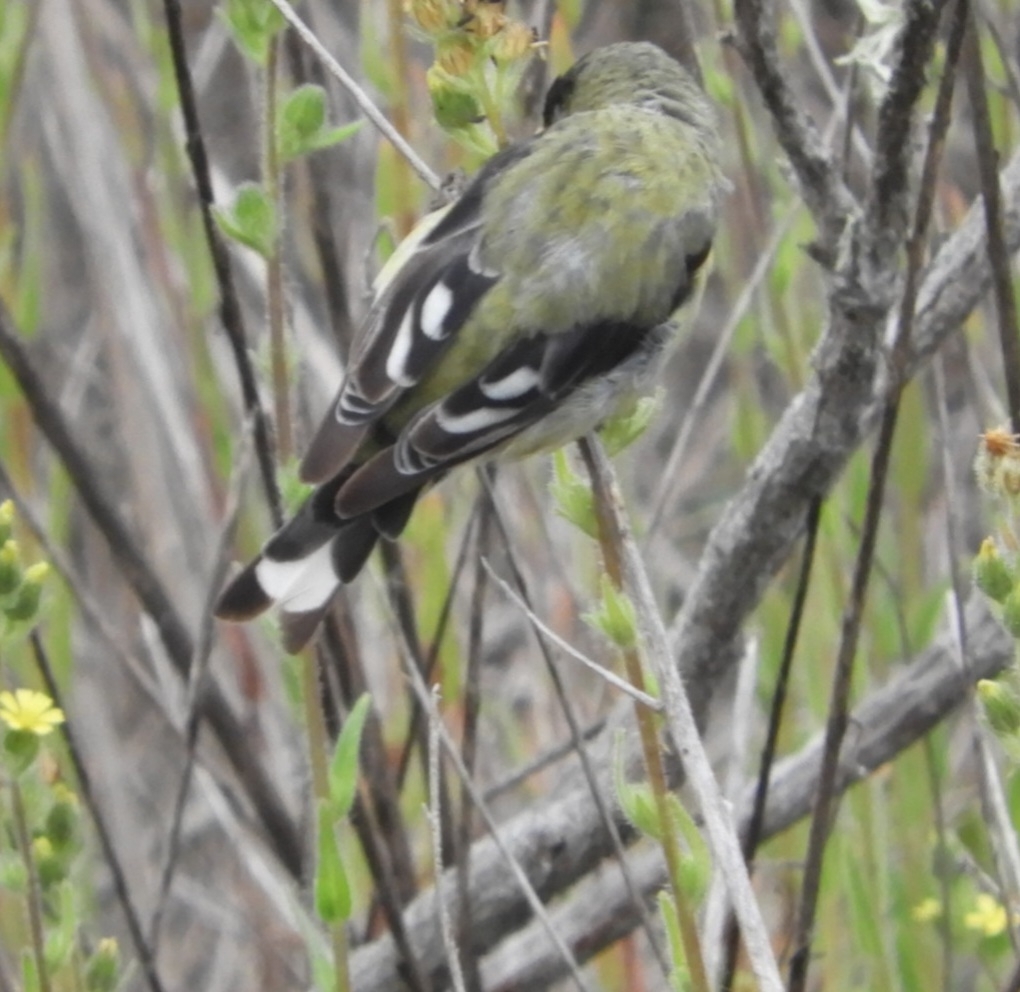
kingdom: Animalia
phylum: Chordata
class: Aves
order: Passeriformes
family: Fringillidae
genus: Spinus
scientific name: Spinus psaltria
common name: Lesser goldfinch
